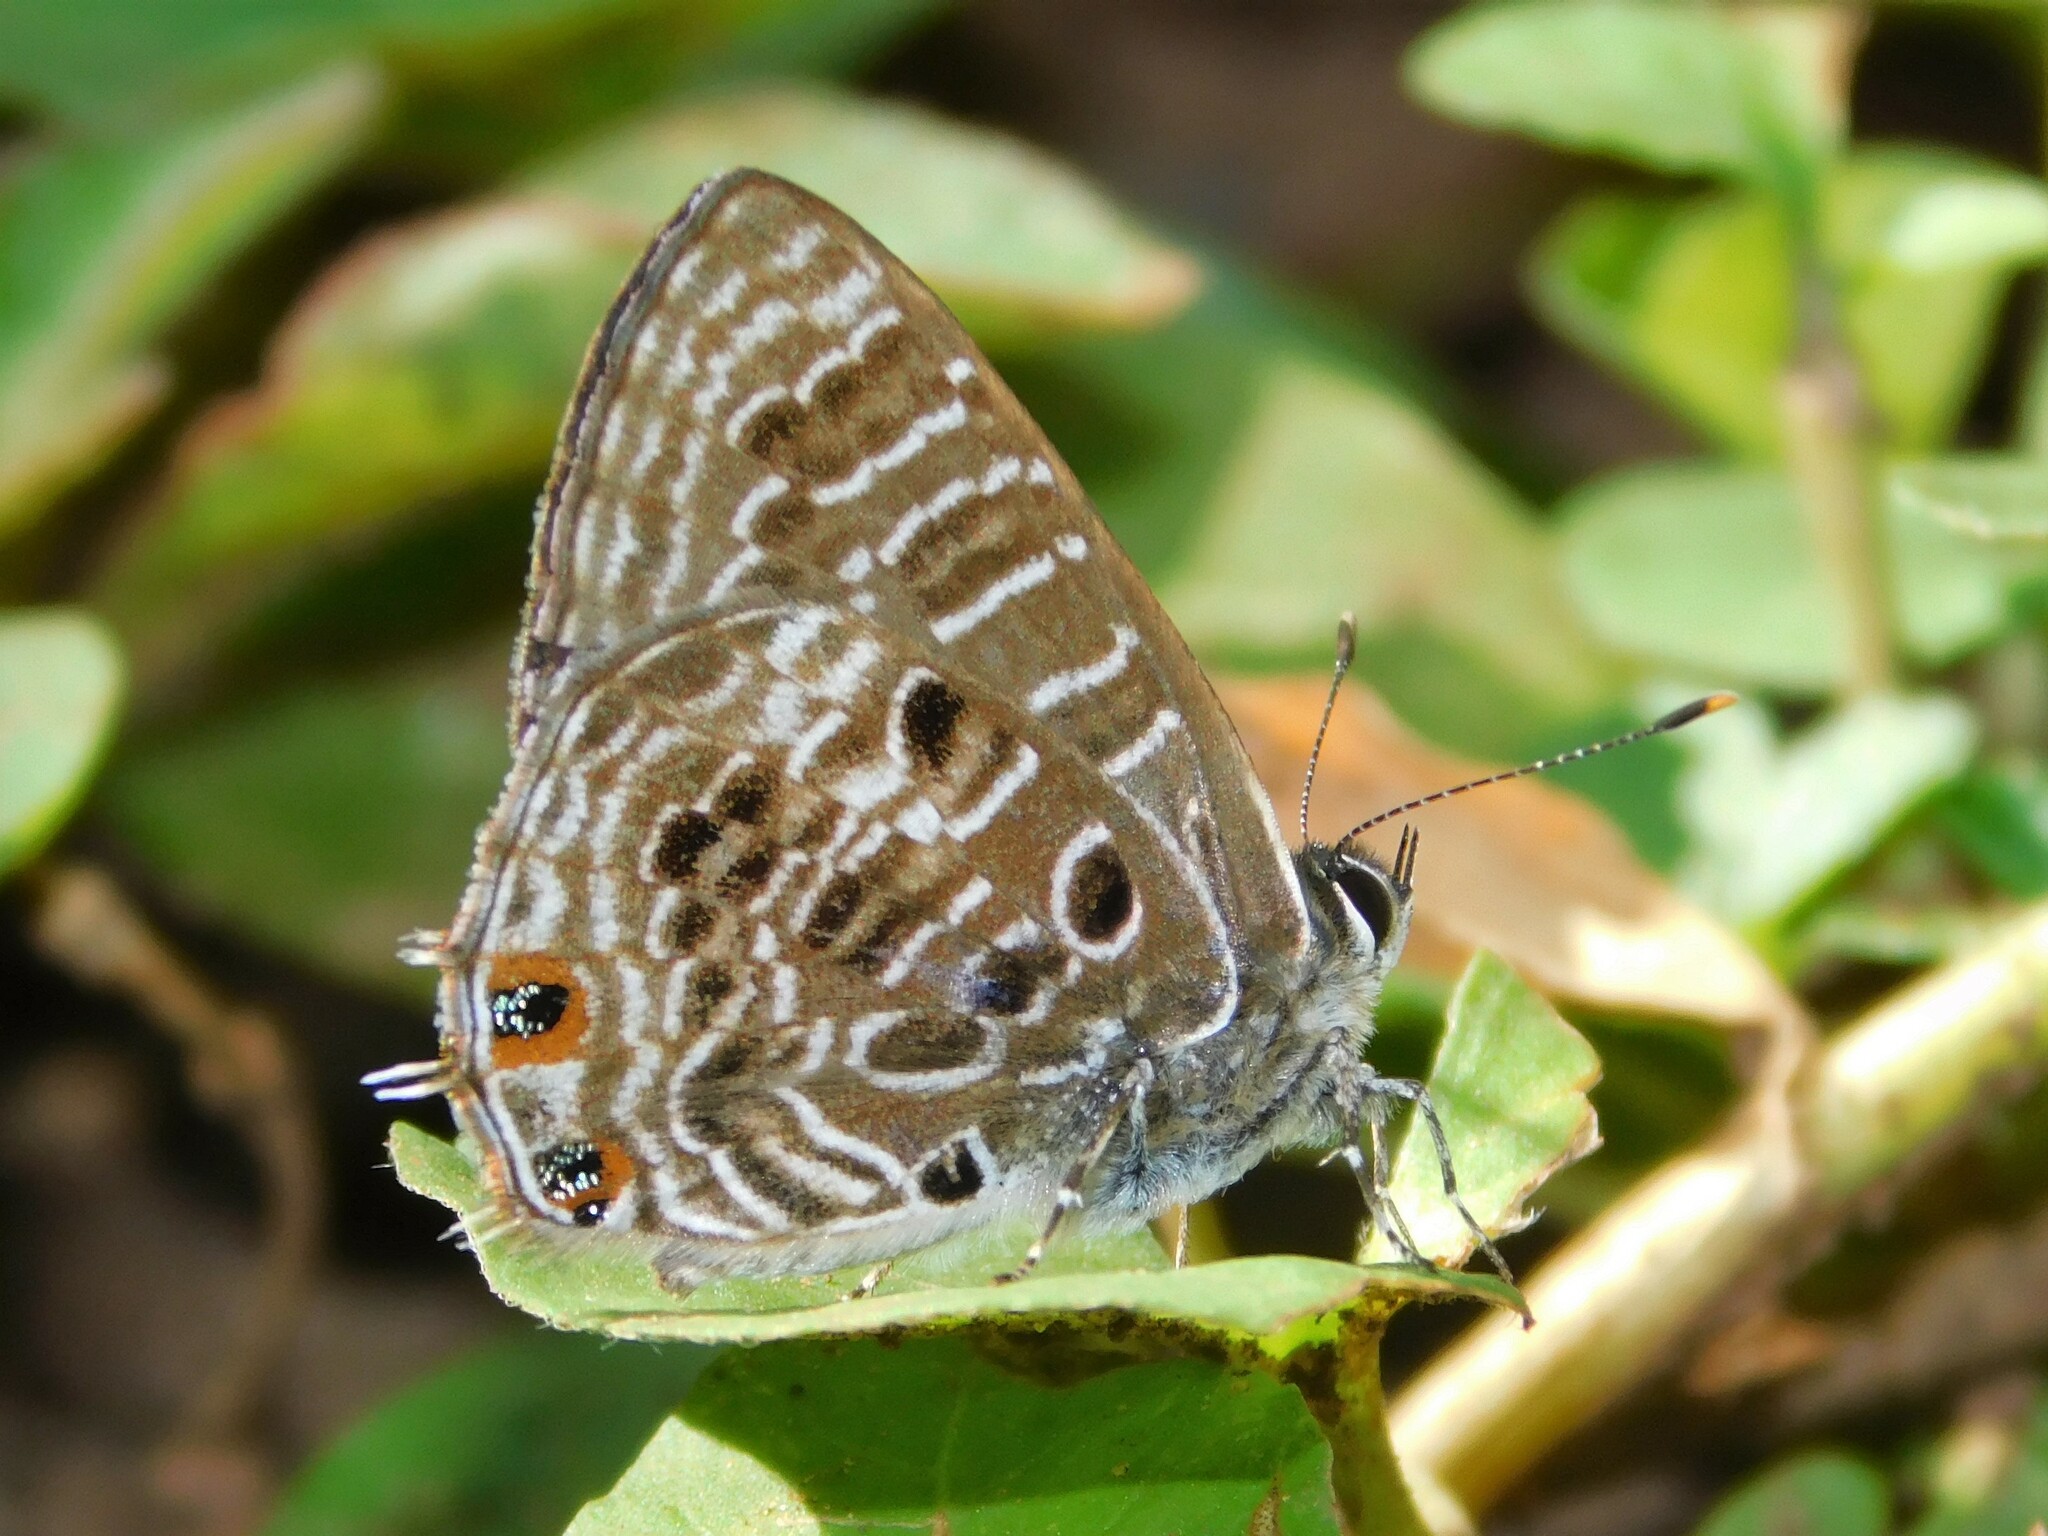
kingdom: Animalia
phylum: Arthropoda
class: Insecta
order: Lepidoptera
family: Lycaenidae
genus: Anthene
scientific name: Anthene larydas
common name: Forest hairtail
